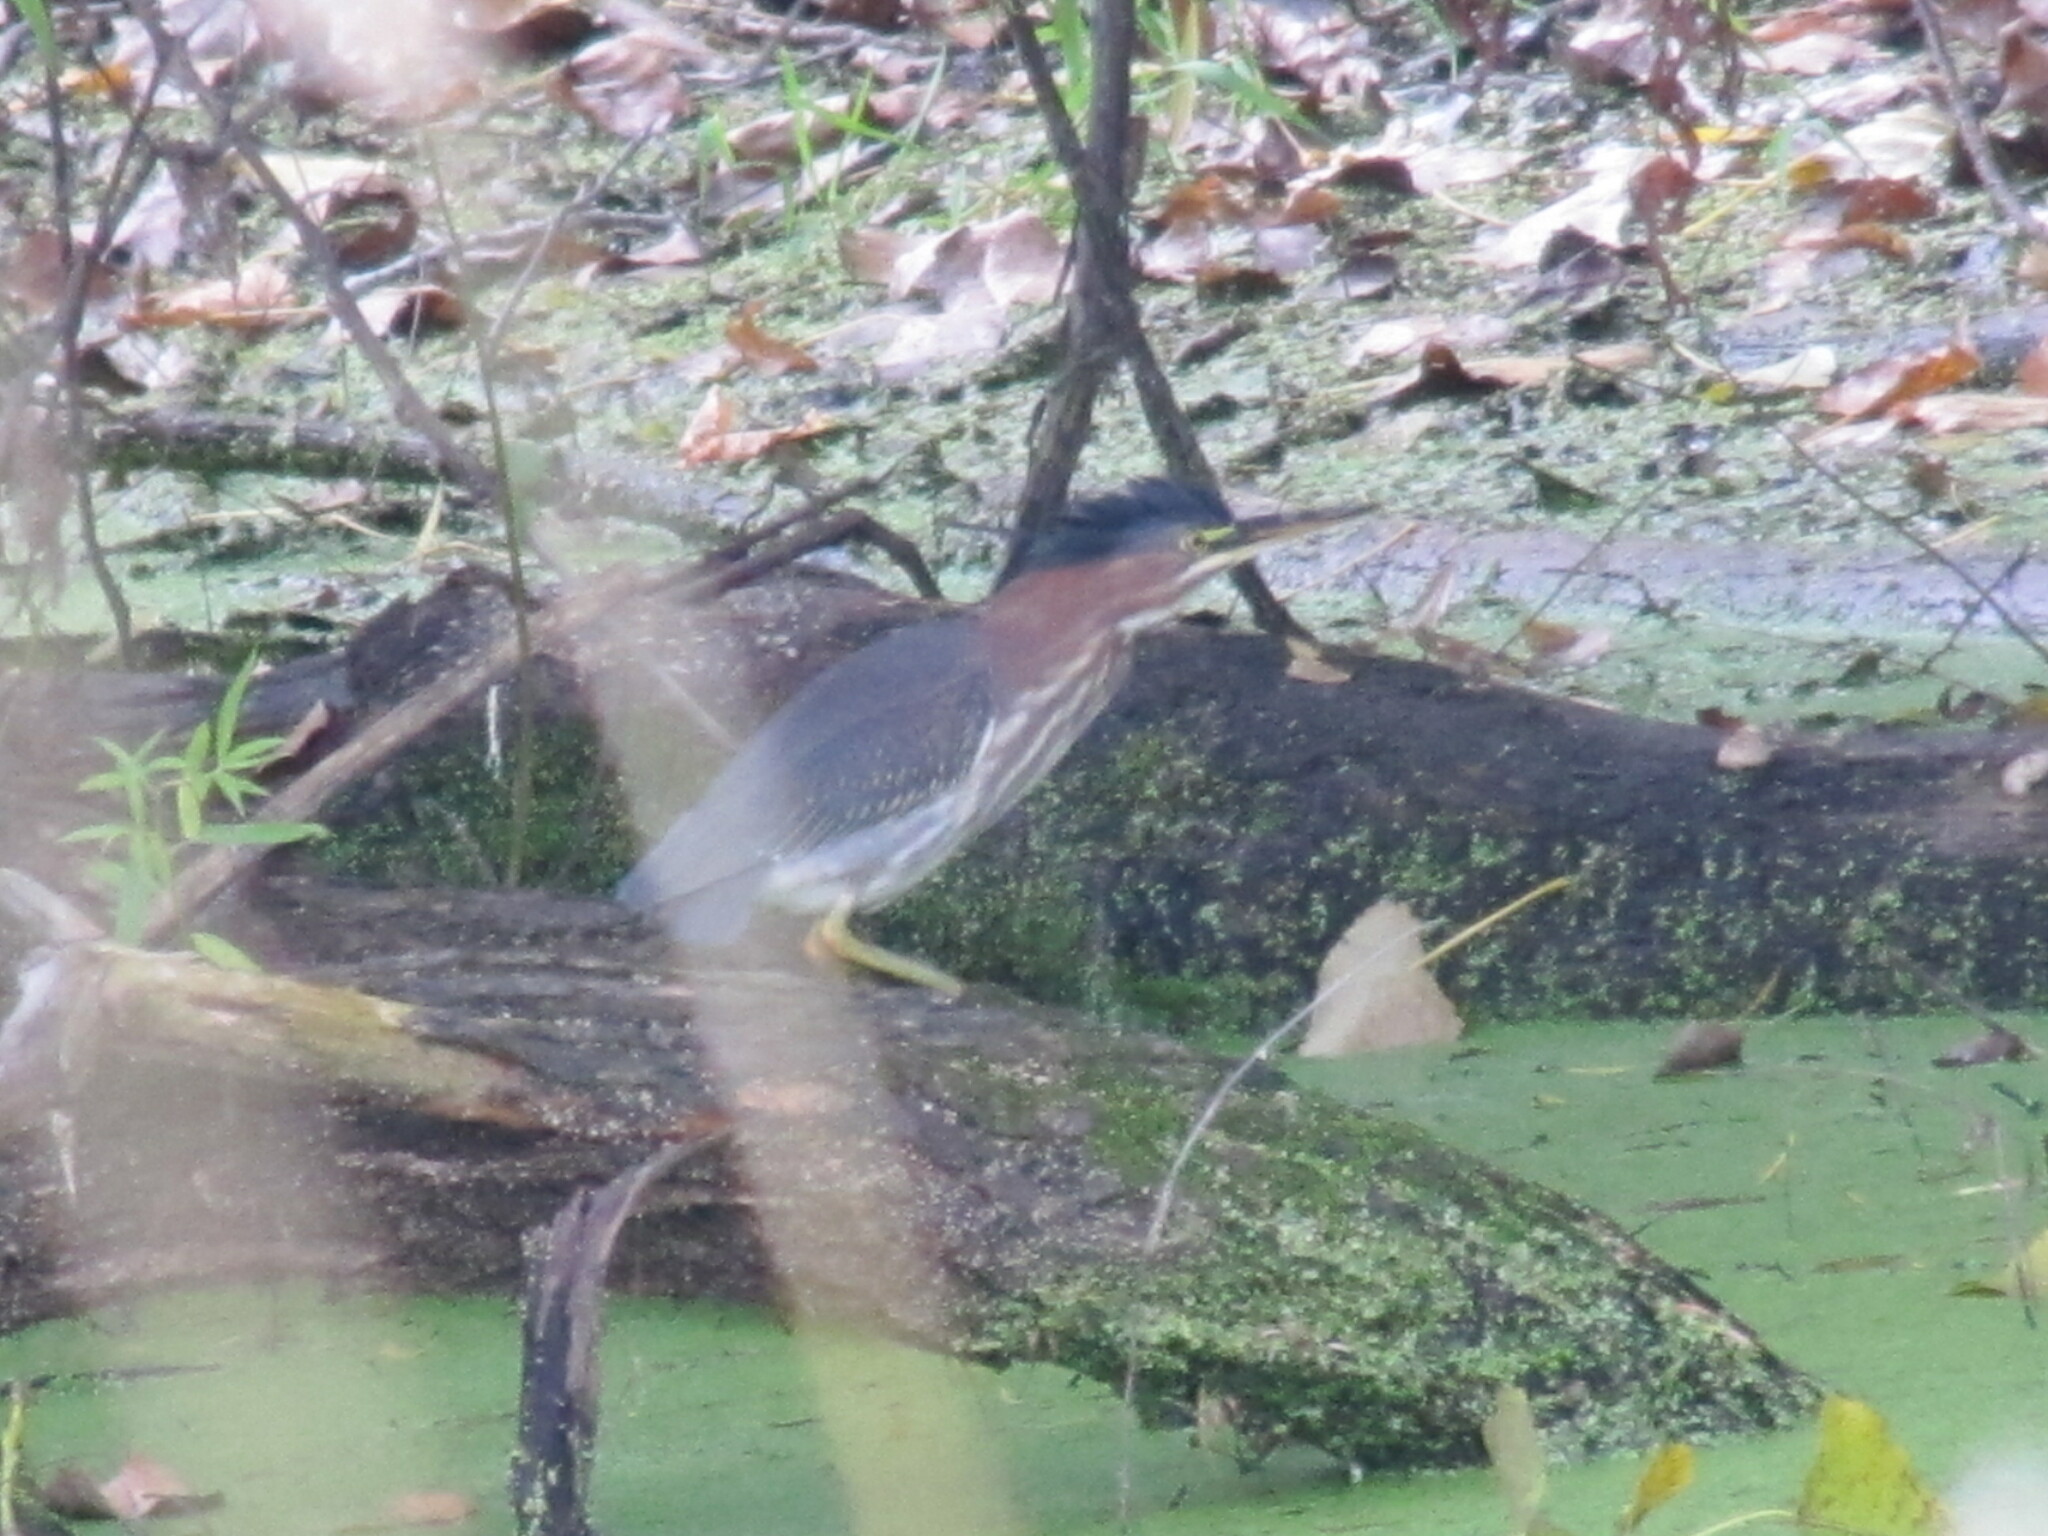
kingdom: Animalia
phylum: Chordata
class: Aves
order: Pelecaniformes
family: Ardeidae
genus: Butorides
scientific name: Butorides virescens
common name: Green heron
